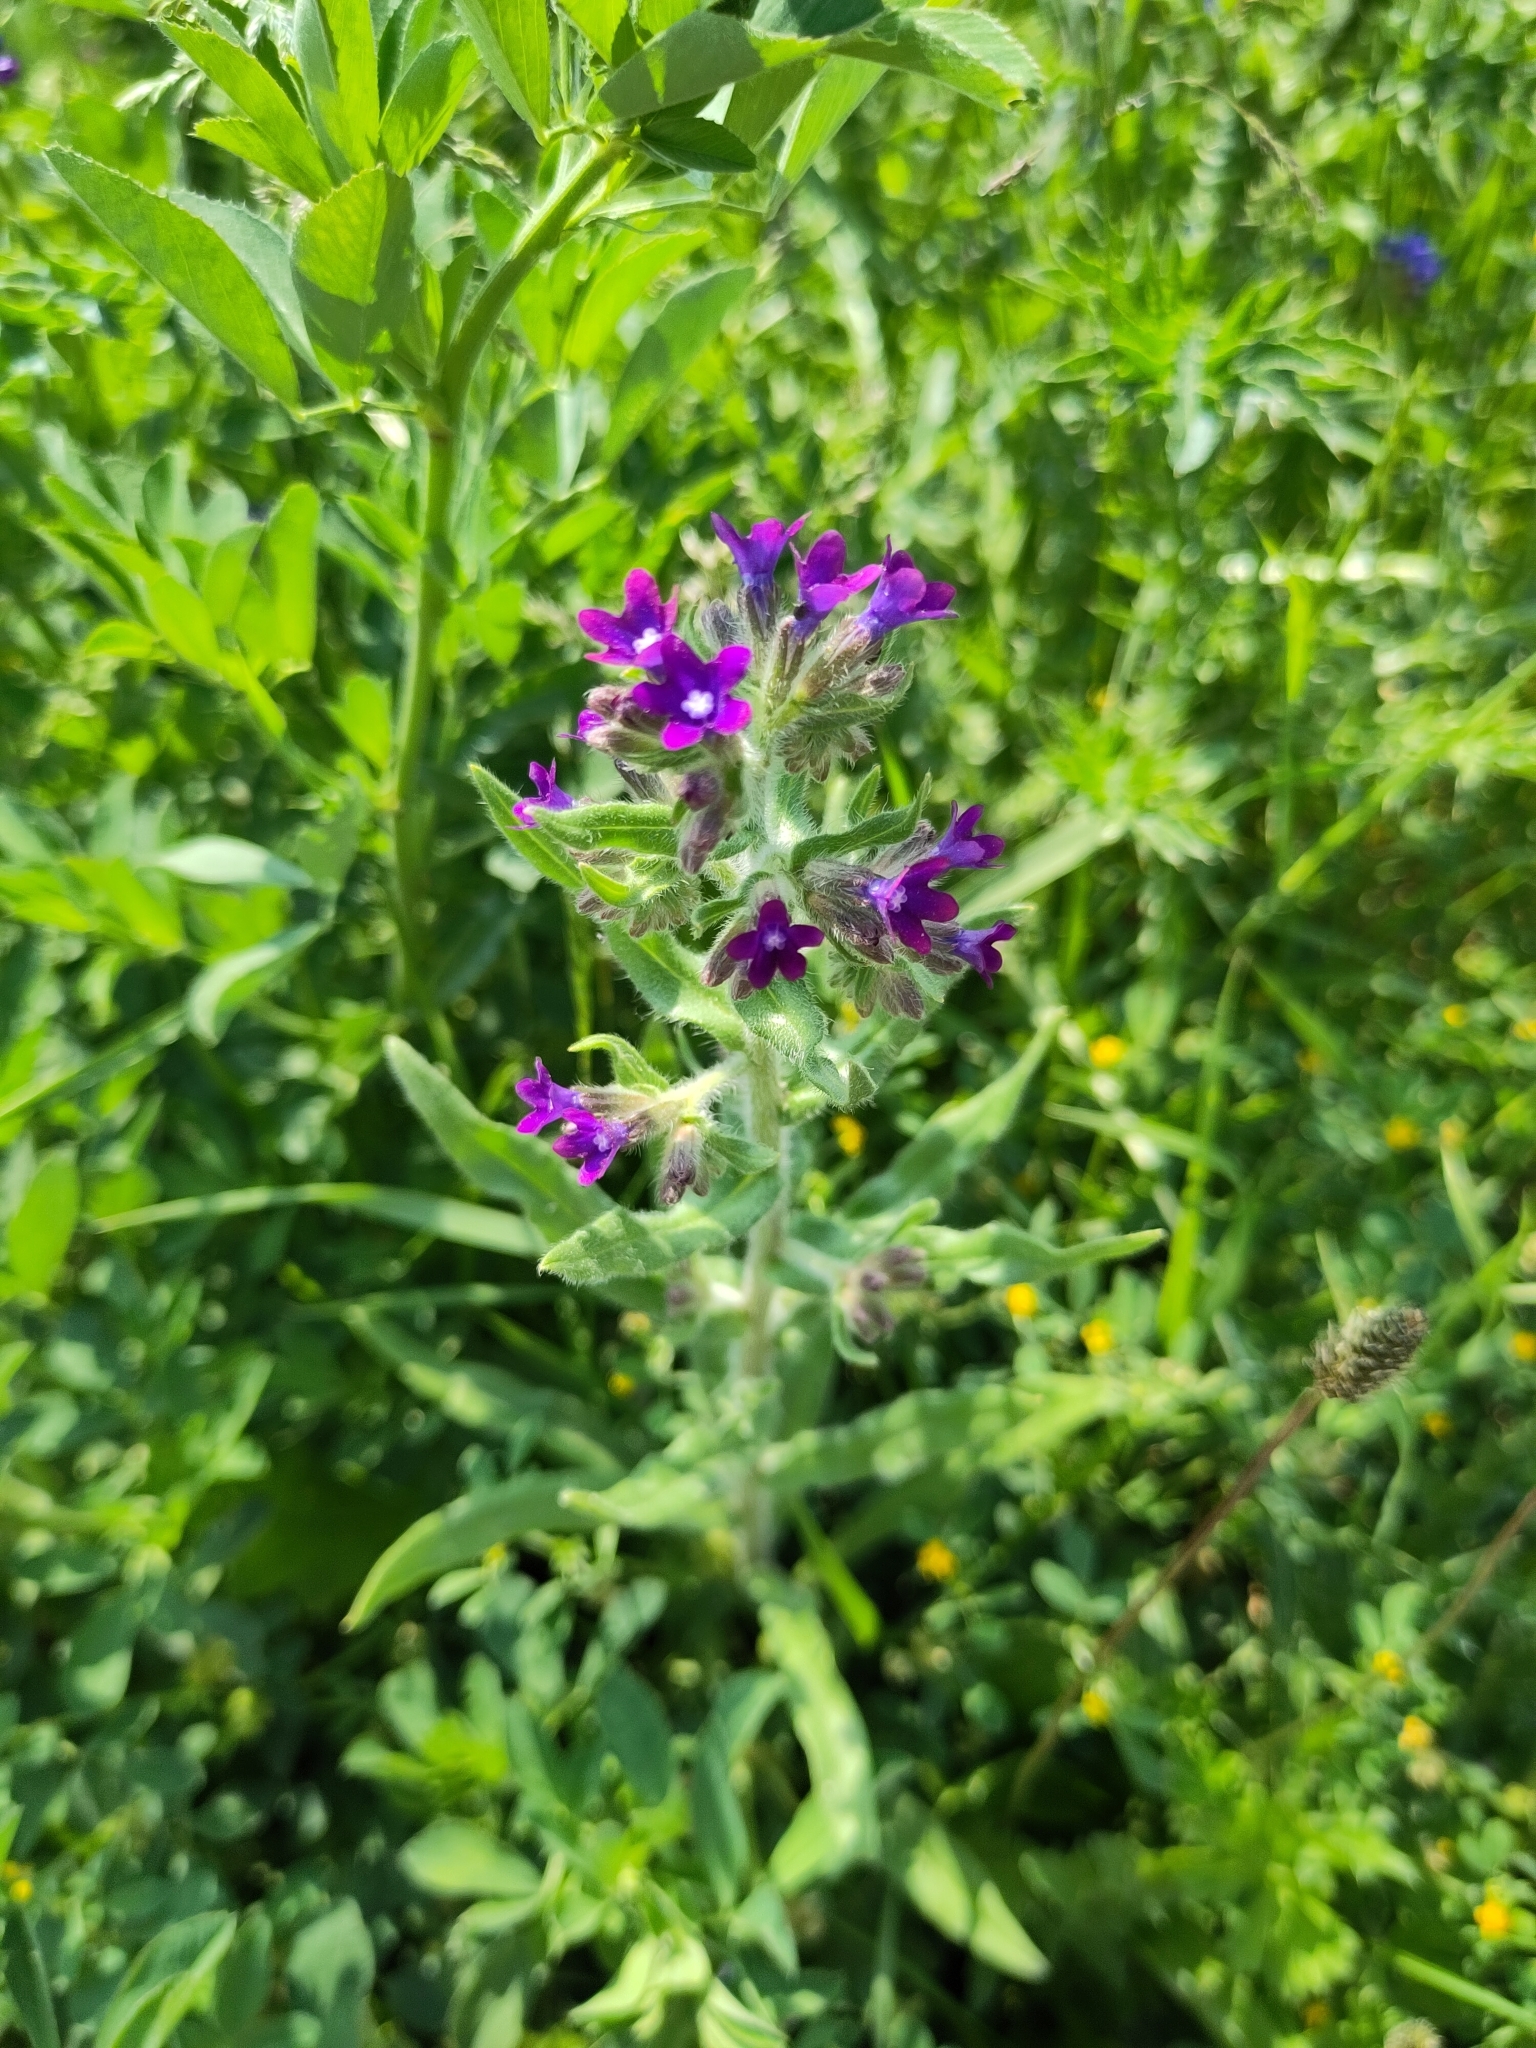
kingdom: Plantae
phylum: Tracheophyta
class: Magnoliopsida
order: Boraginales
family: Boraginaceae
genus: Anchusa
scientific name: Anchusa officinalis
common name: Alkanet
